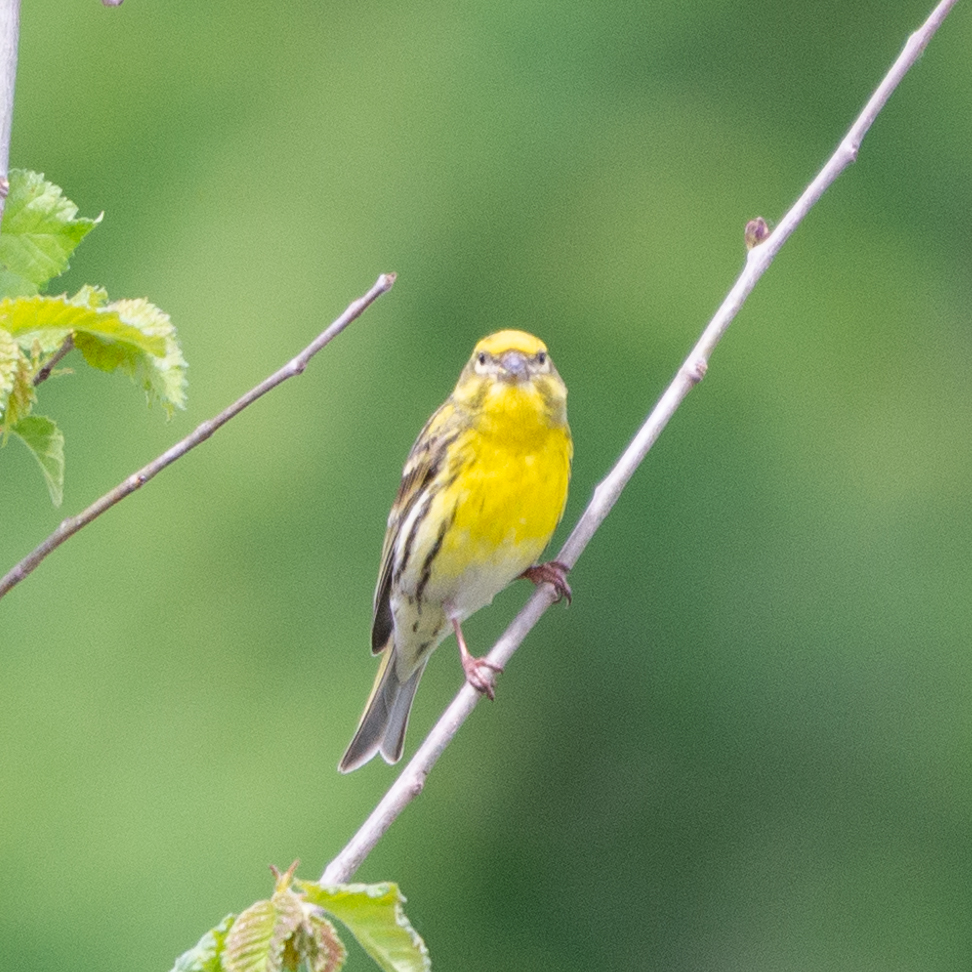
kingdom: Animalia
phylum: Chordata
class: Aves
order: Passeriformes
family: Fringillidae
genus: Serinus
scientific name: Serinus serinus
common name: European serin
